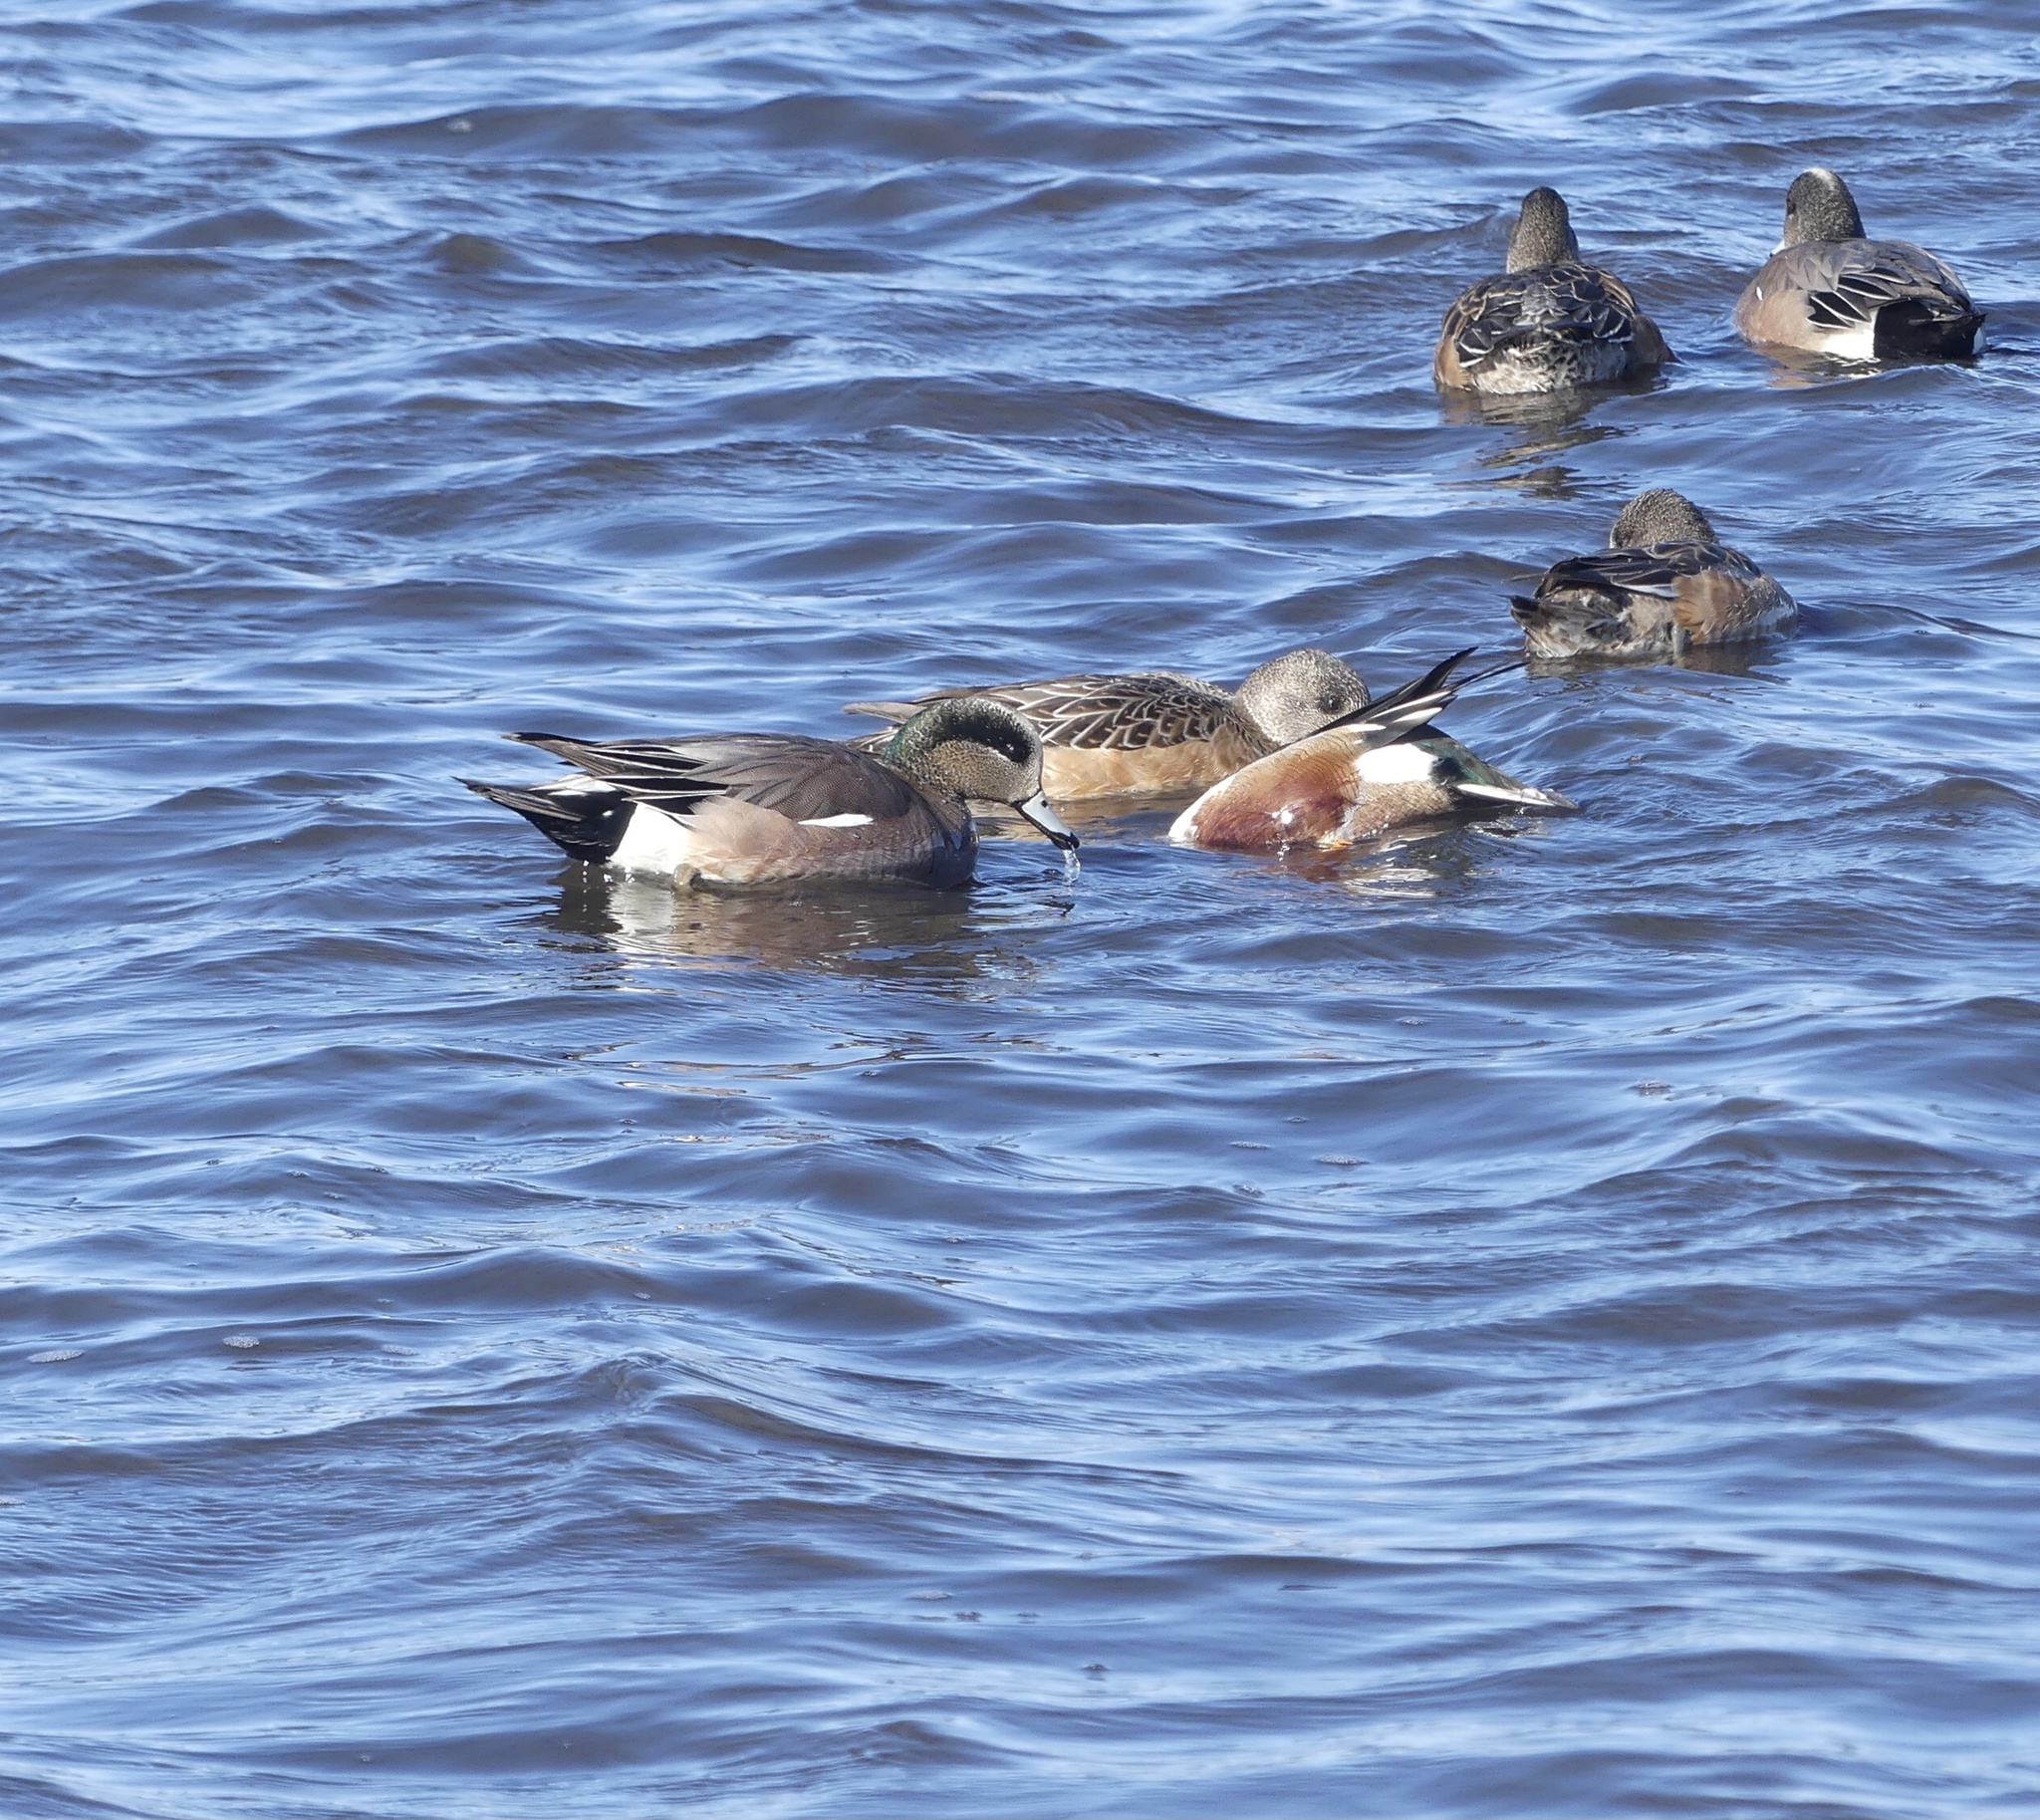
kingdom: Animalia
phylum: Chordata
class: Aves
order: Anseriformes
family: Anatidae
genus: Mareca
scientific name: Mareca americana
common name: American wigeon
